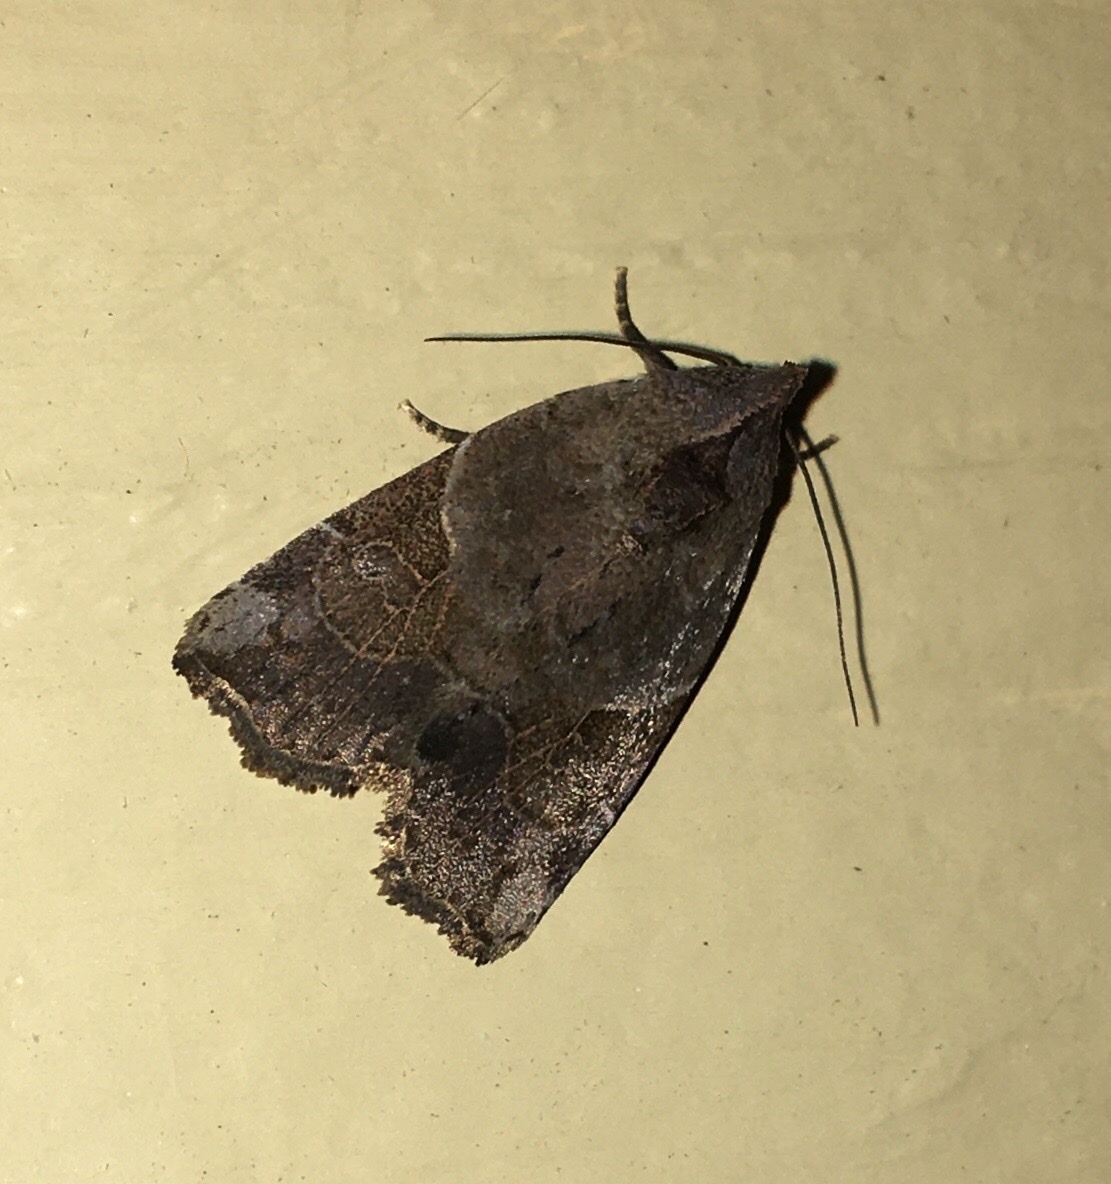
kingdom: Animalia
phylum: Arthropoda
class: Insecta
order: Lepidoptera
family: Noctuidae
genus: Gonodes
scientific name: Gonodes liquida
